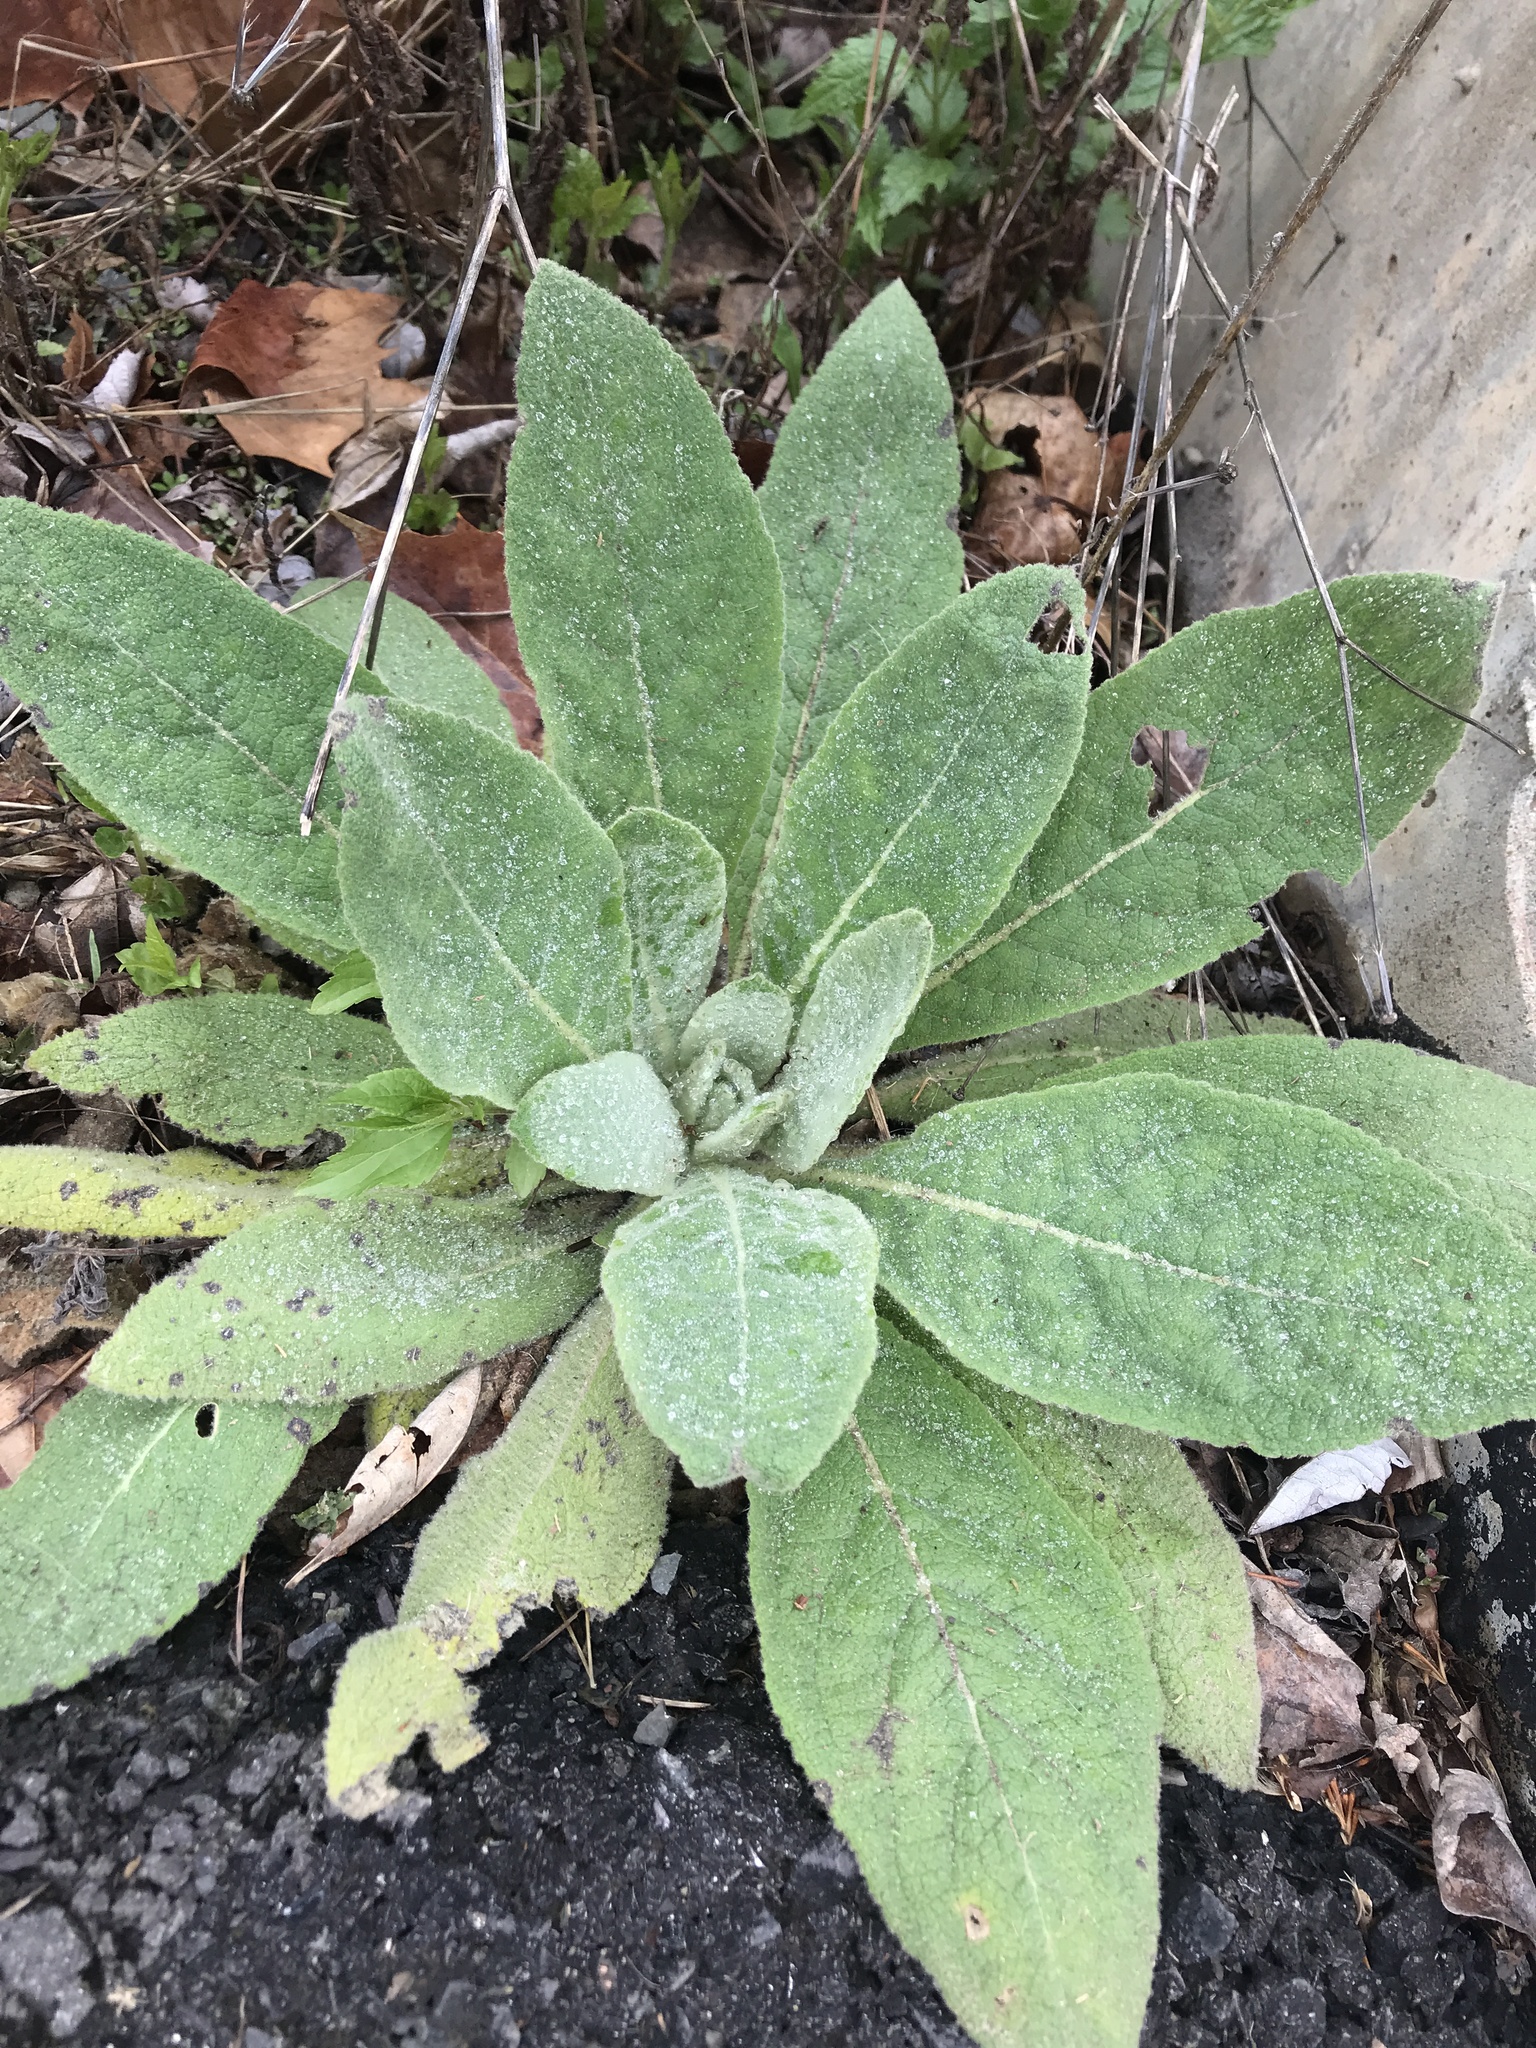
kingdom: Plantae
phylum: Tracheophyta
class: Magnoliopsida
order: Lamiales
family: Scrophulariaceae
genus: Verbascum
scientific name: Verbascum thapsus
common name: Common mullein
